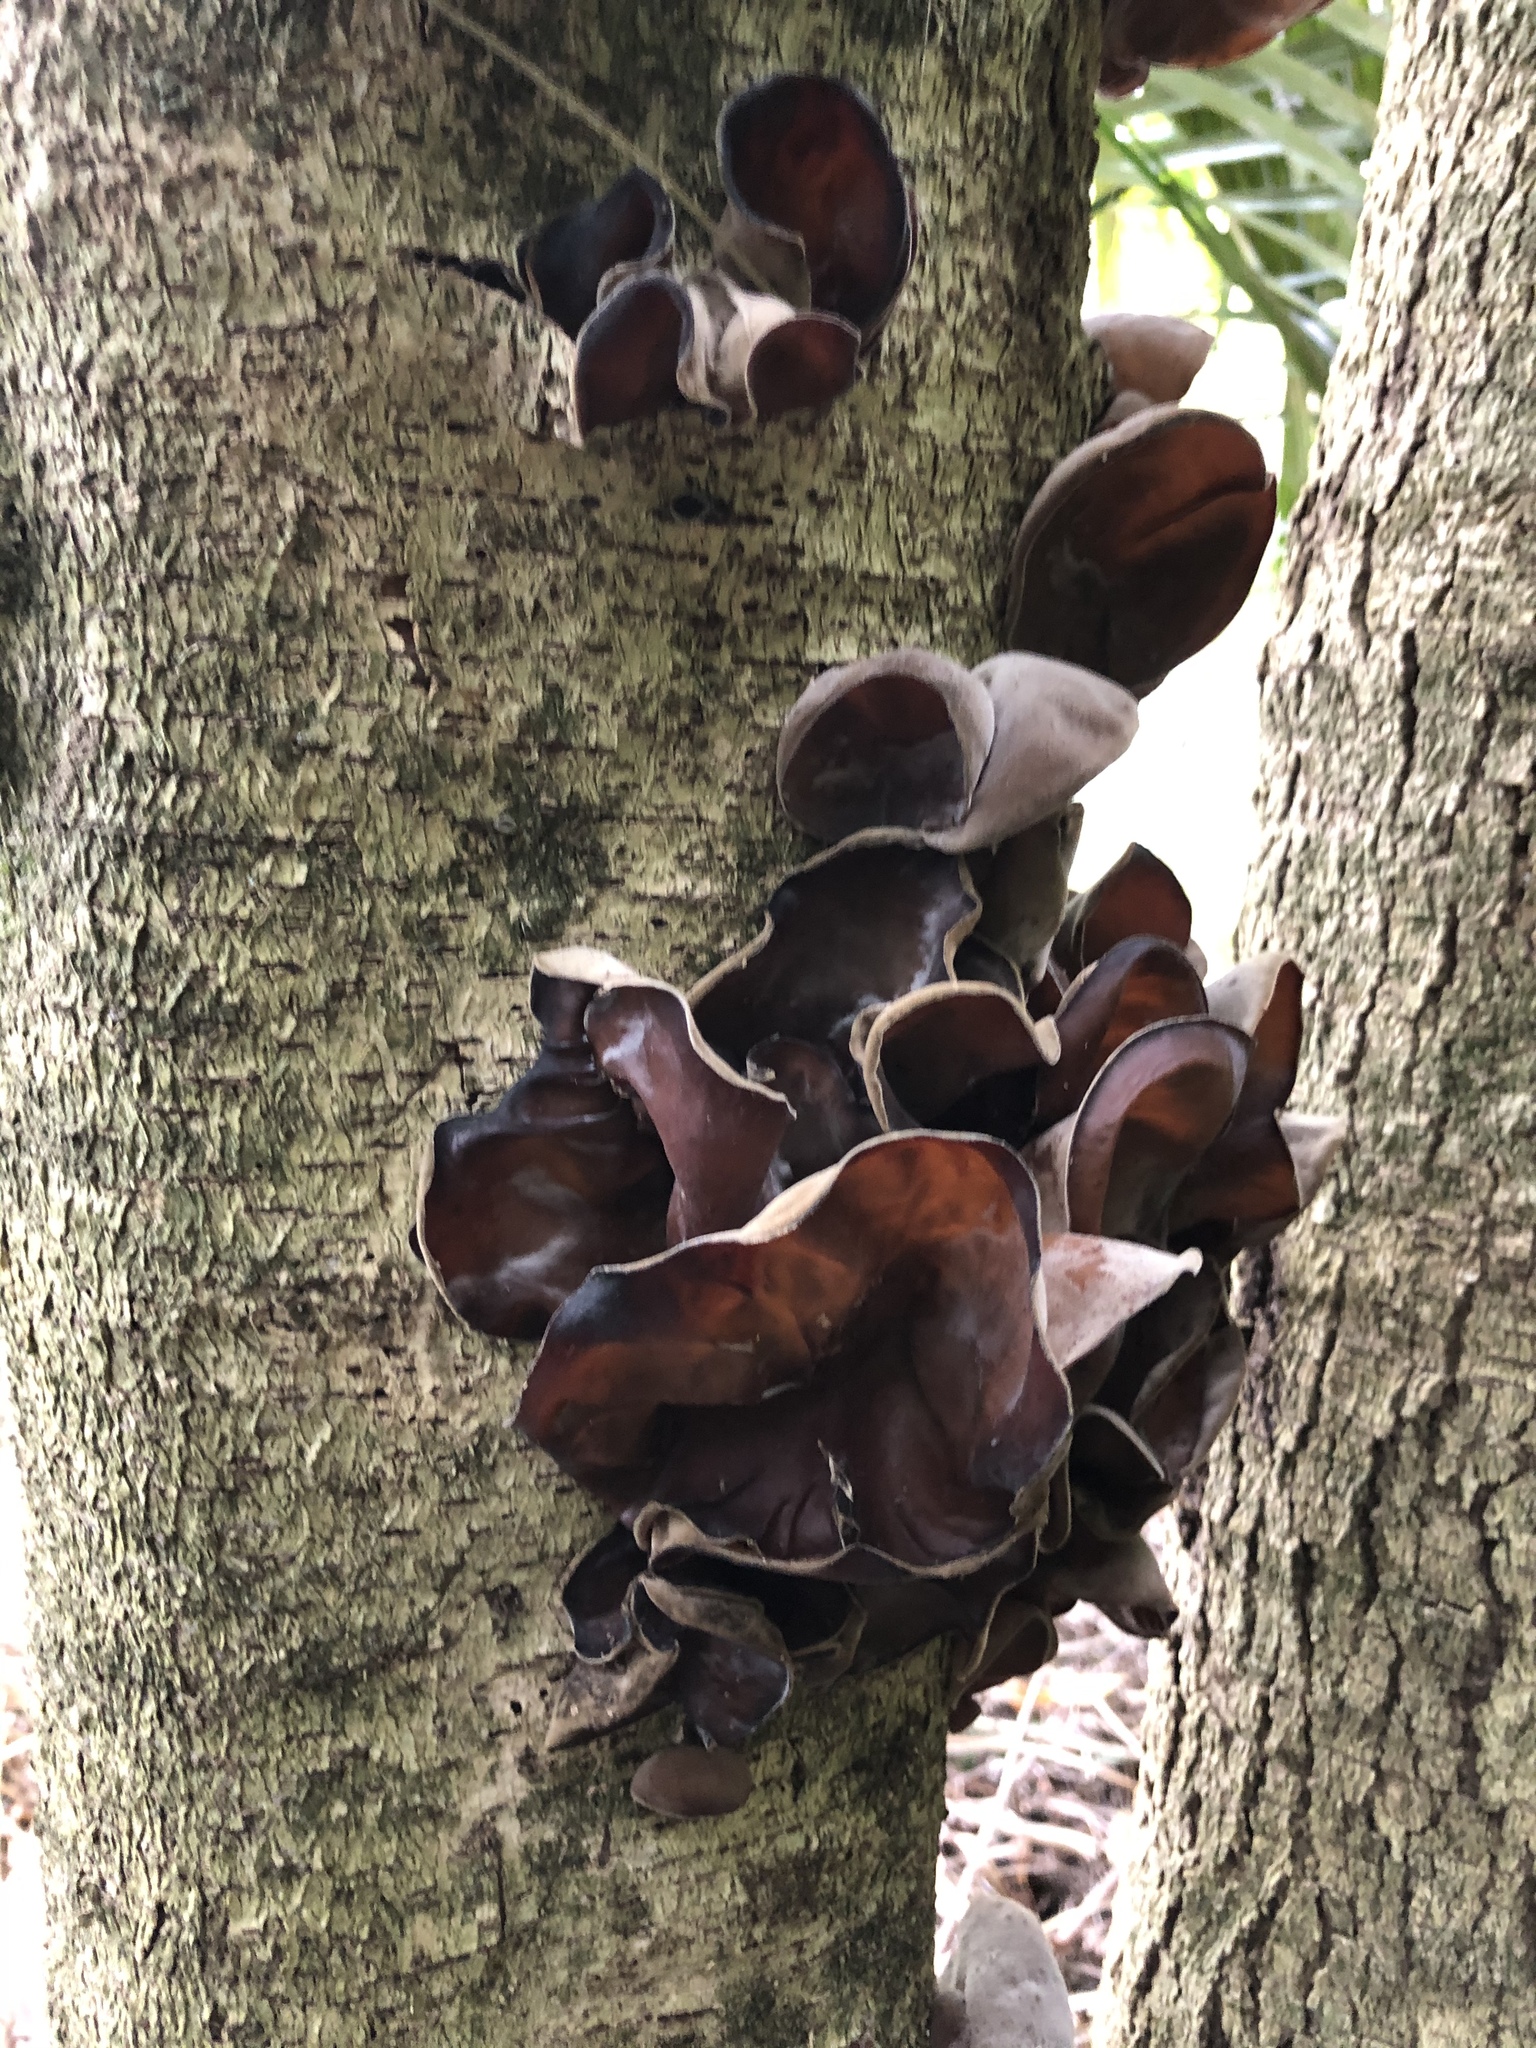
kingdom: Fungi
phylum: Basidiomycota
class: Agaricomycetes
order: Auriculariales
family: Auriculariaceae
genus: Auricularia
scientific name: Auricularia cornea
